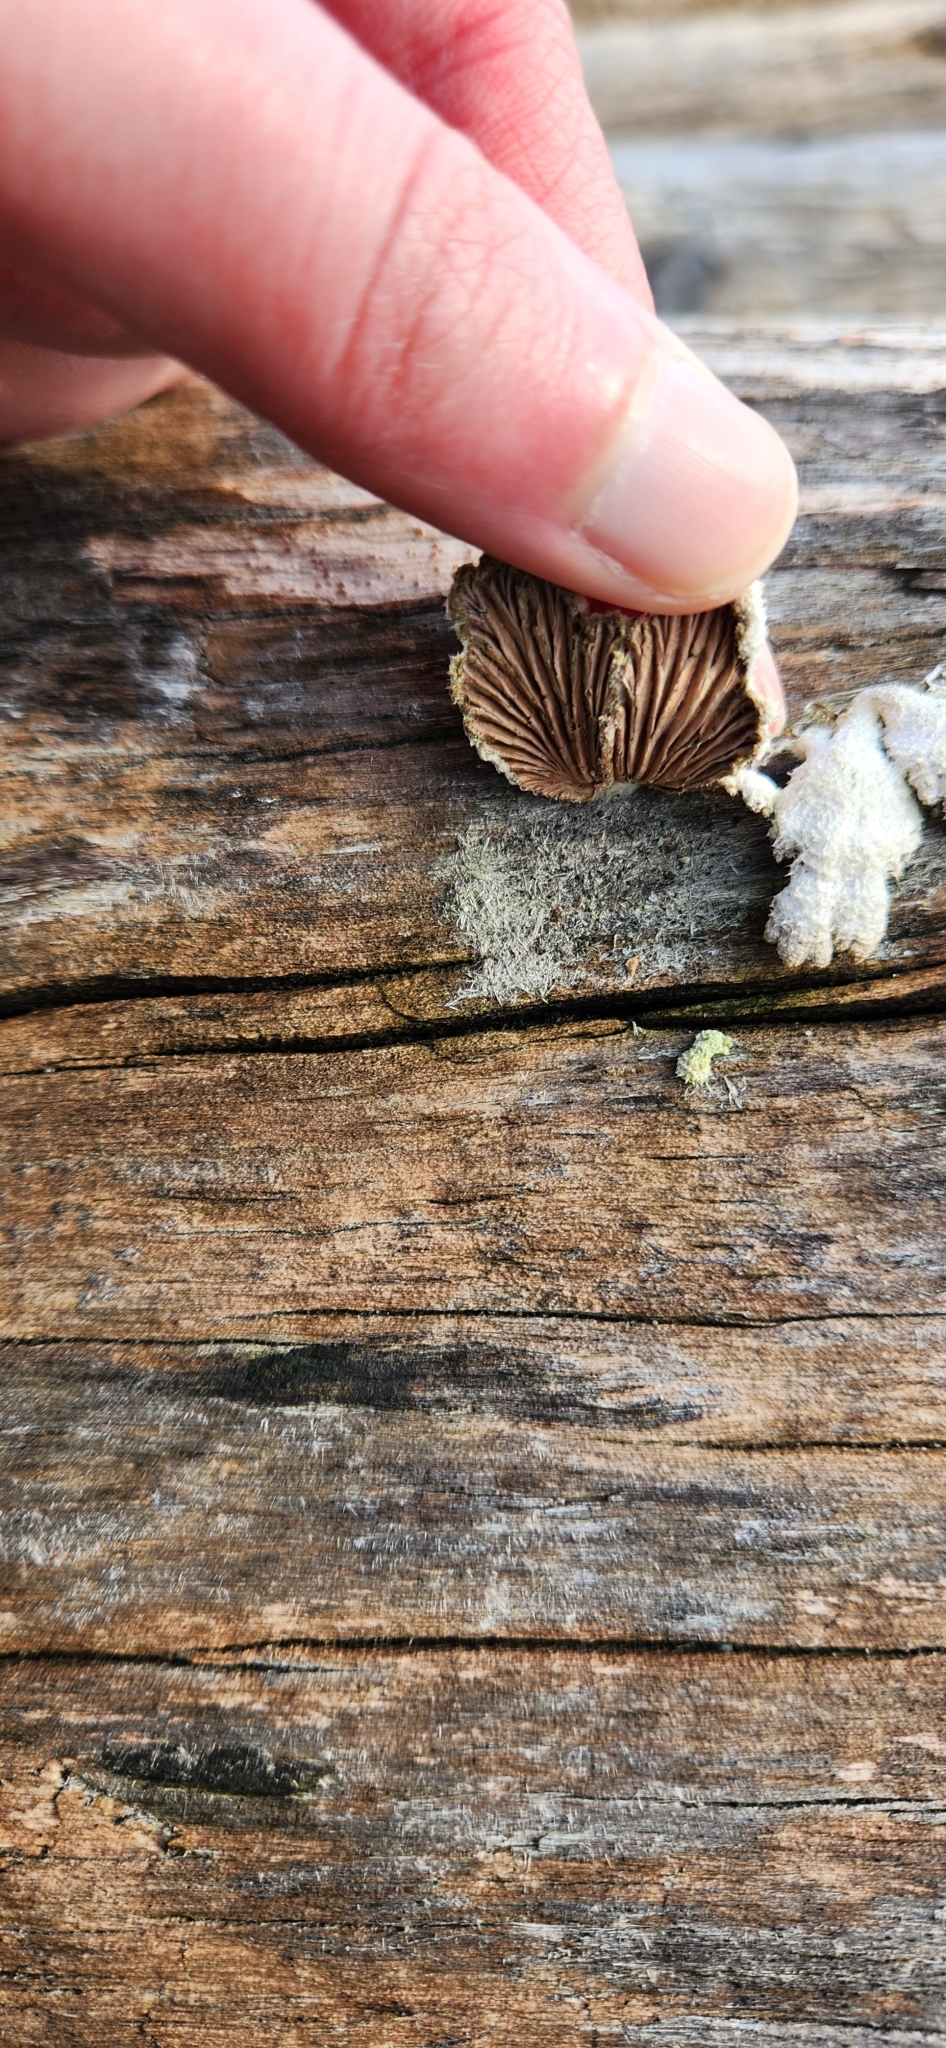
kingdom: Fungi
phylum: Basidiomycota
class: Agaricomycetes
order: Agaricales
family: Schizophyllaceae
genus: Schizophyllum
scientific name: Schizophyllum commune
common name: Common porecrust
